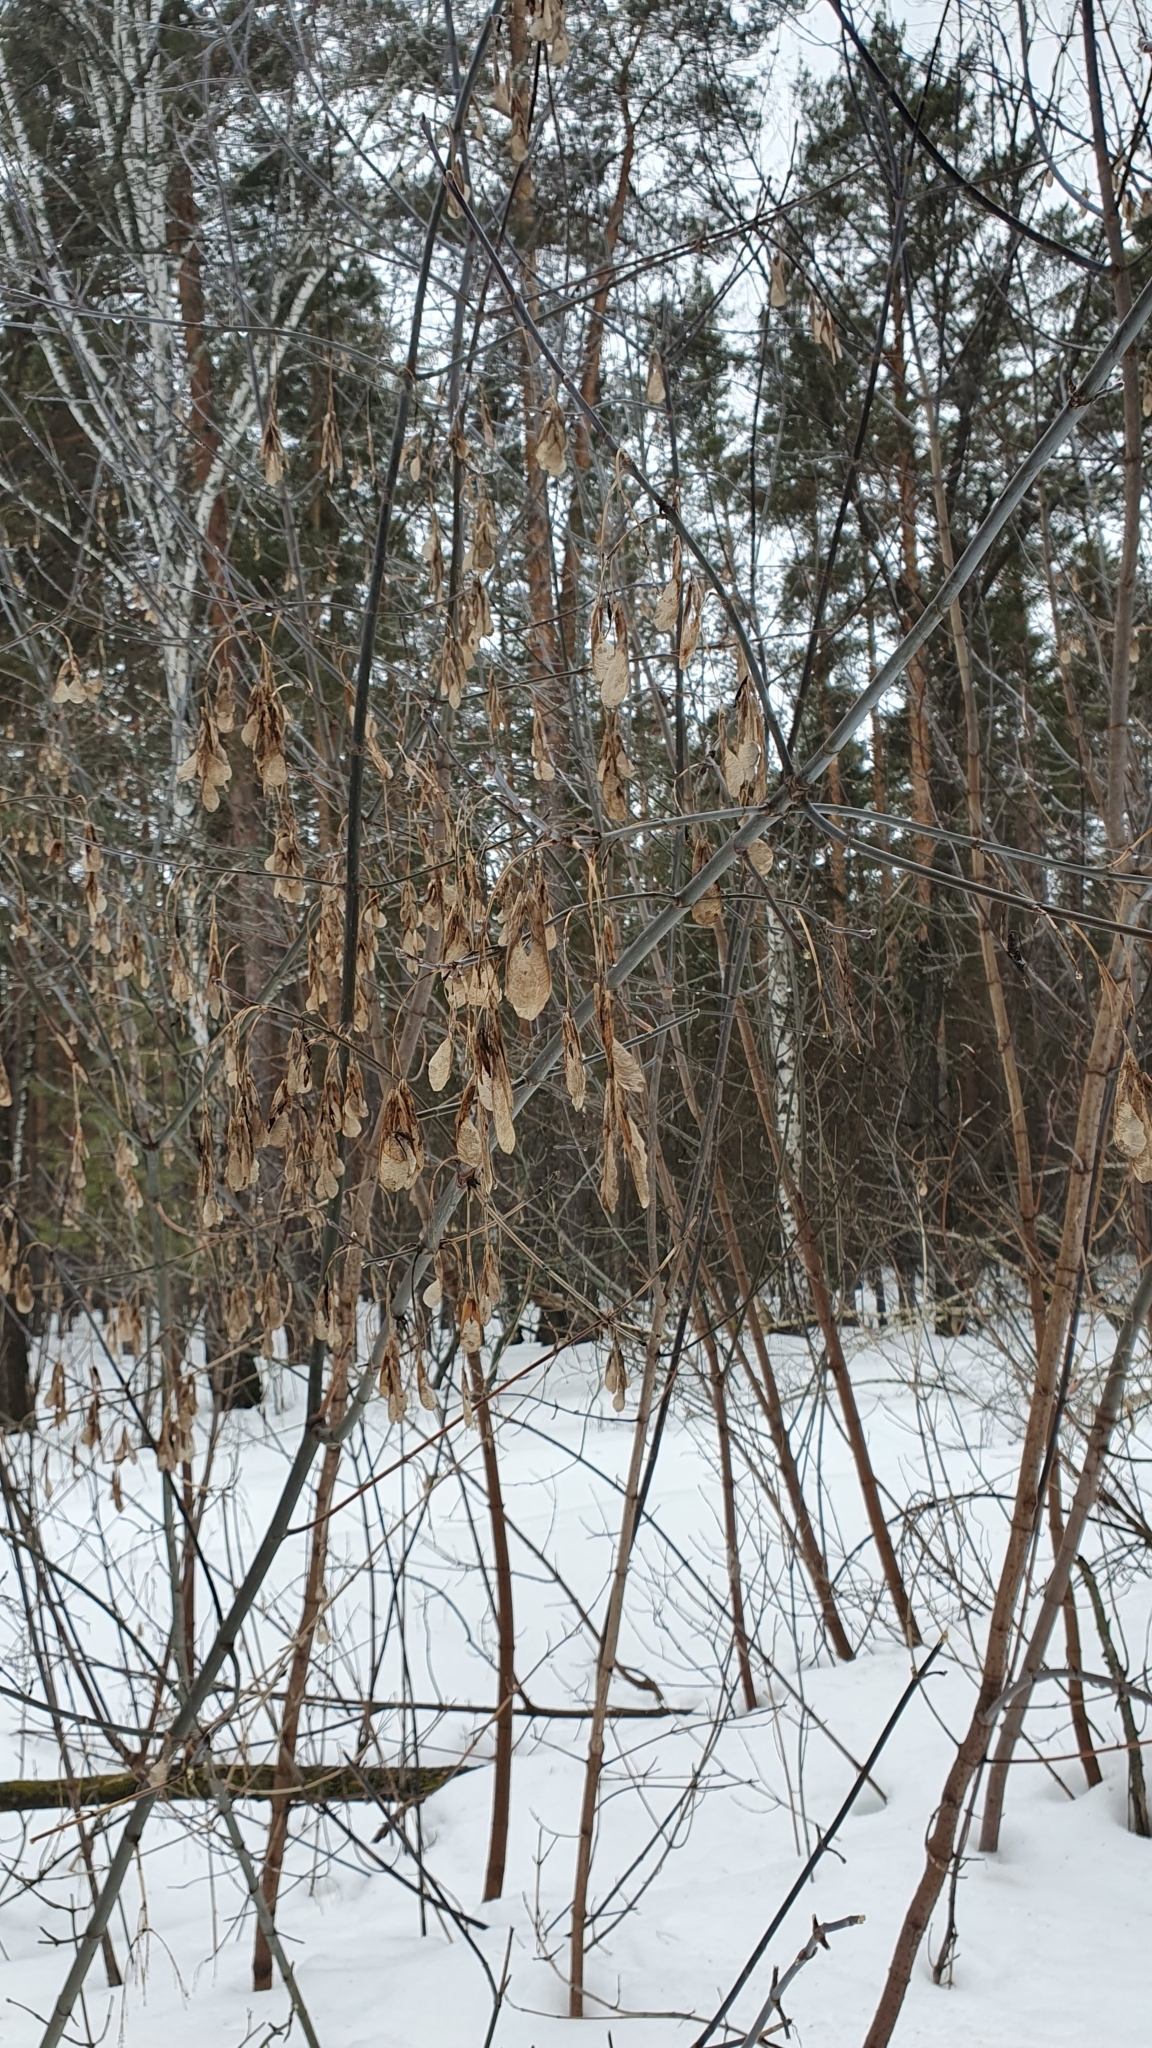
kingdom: Plantae
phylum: Tracheophyta
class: Magnoliopsida
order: Sapindales
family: Sapindaceae
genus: Acer
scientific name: Acer negundo
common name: Ashleaf maple
